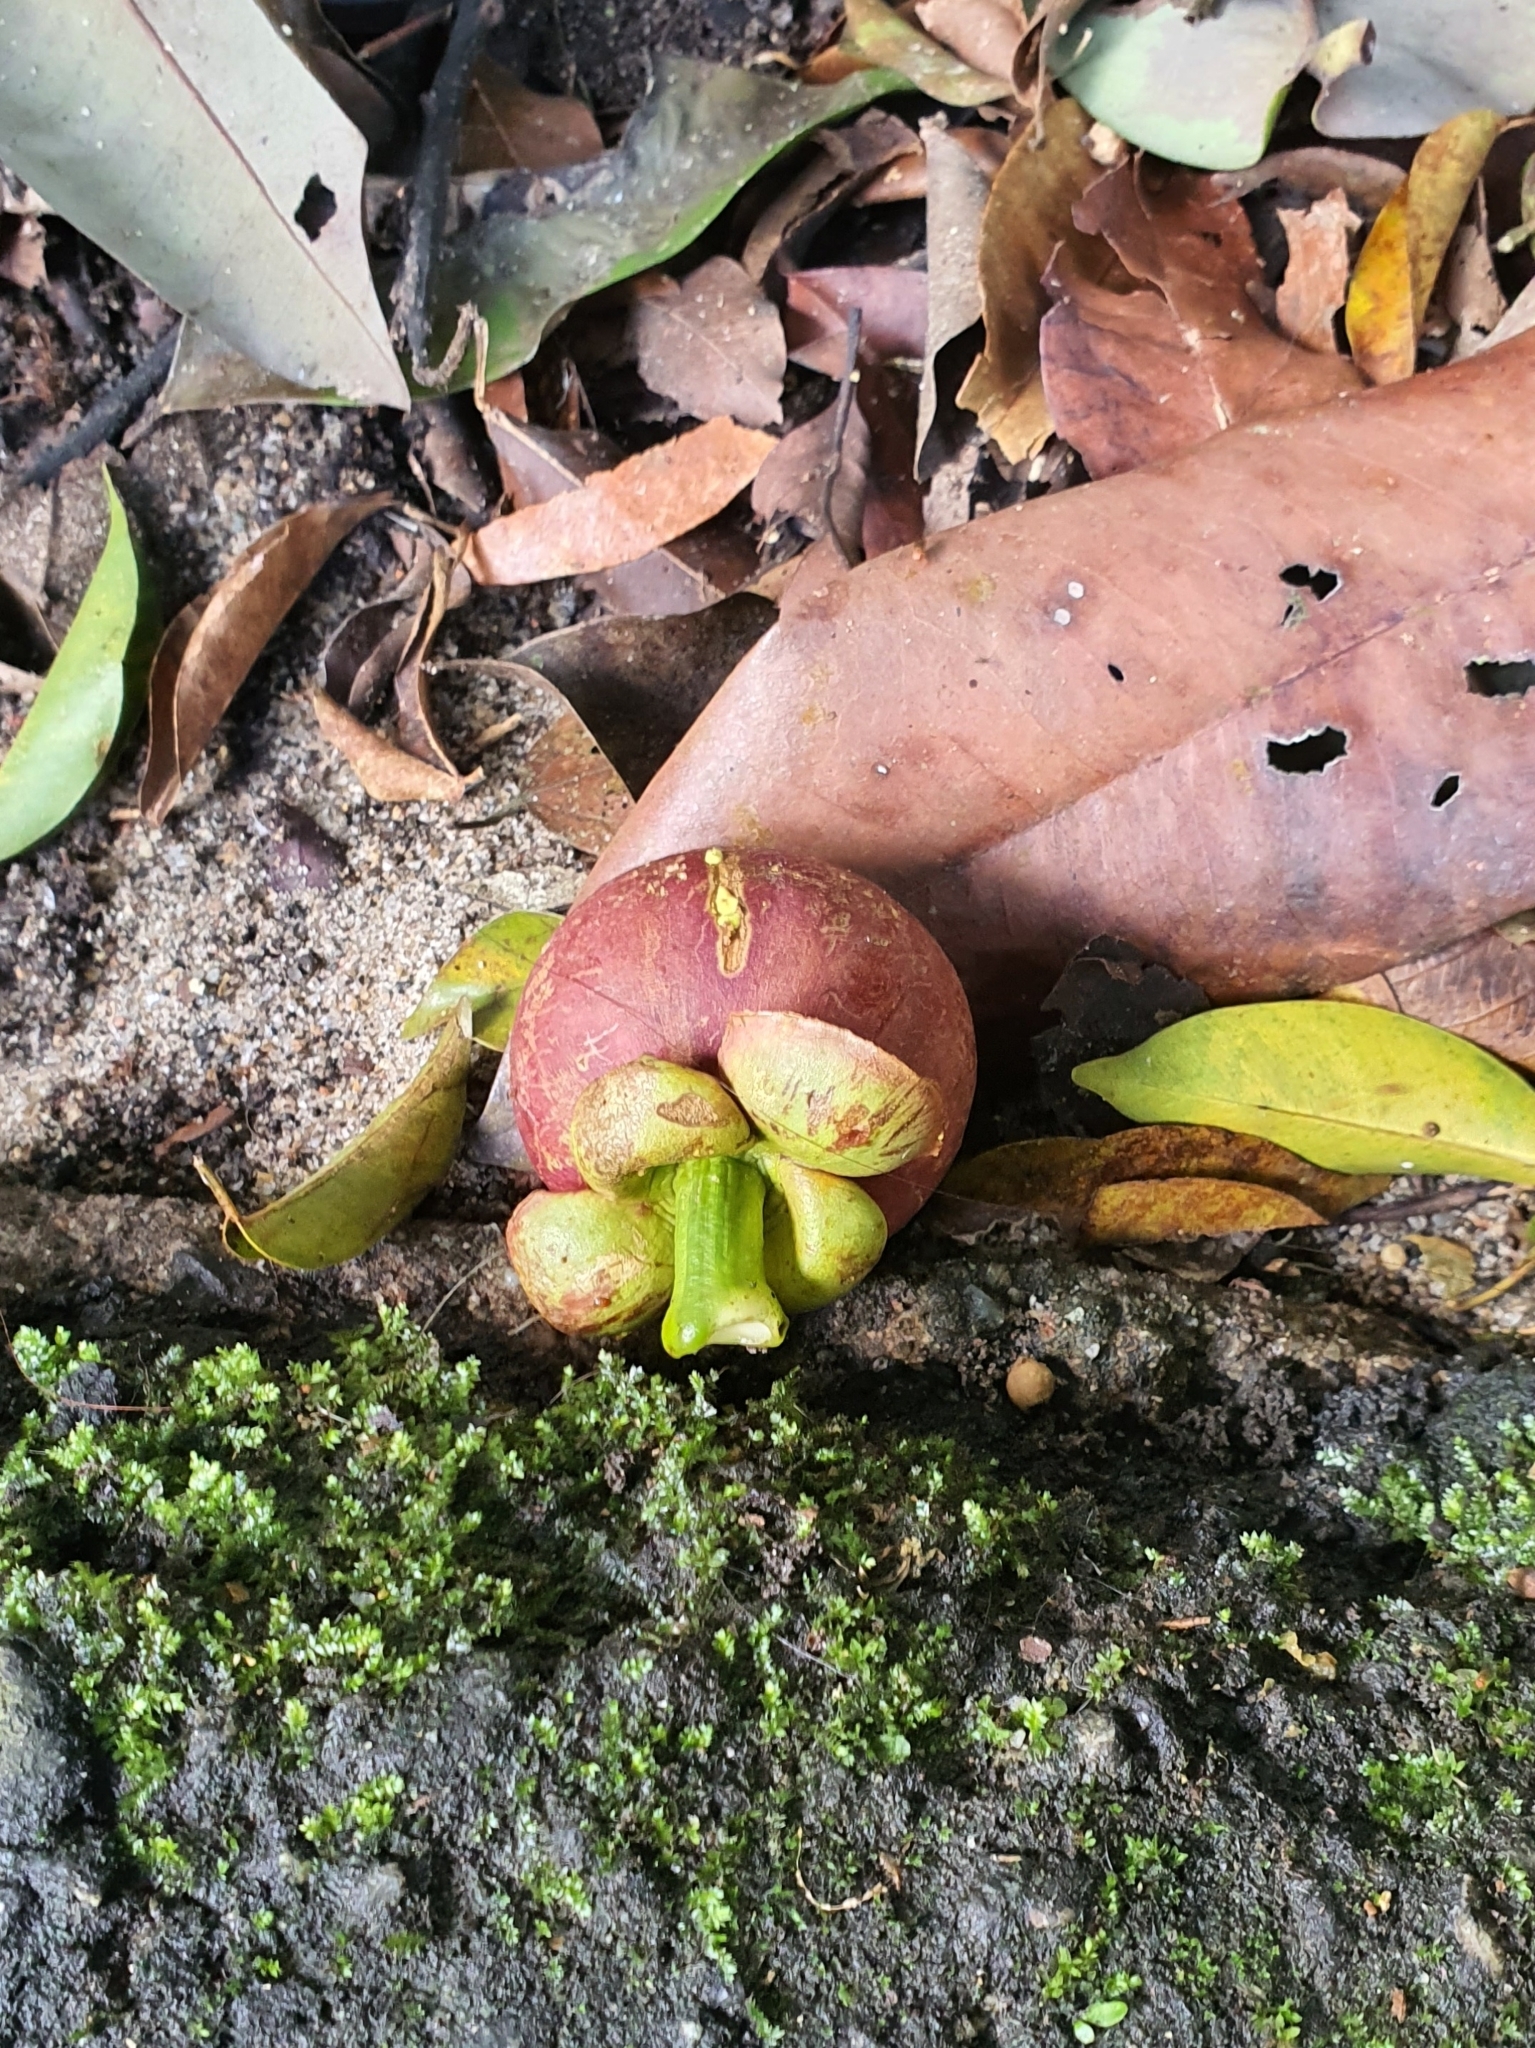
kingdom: Plantae
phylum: Tracheophyta
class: Magnoliopsida
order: Malpighiales
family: Clusiaceae
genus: Garcinia
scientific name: Garcinia mangostana
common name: Mangosteen
